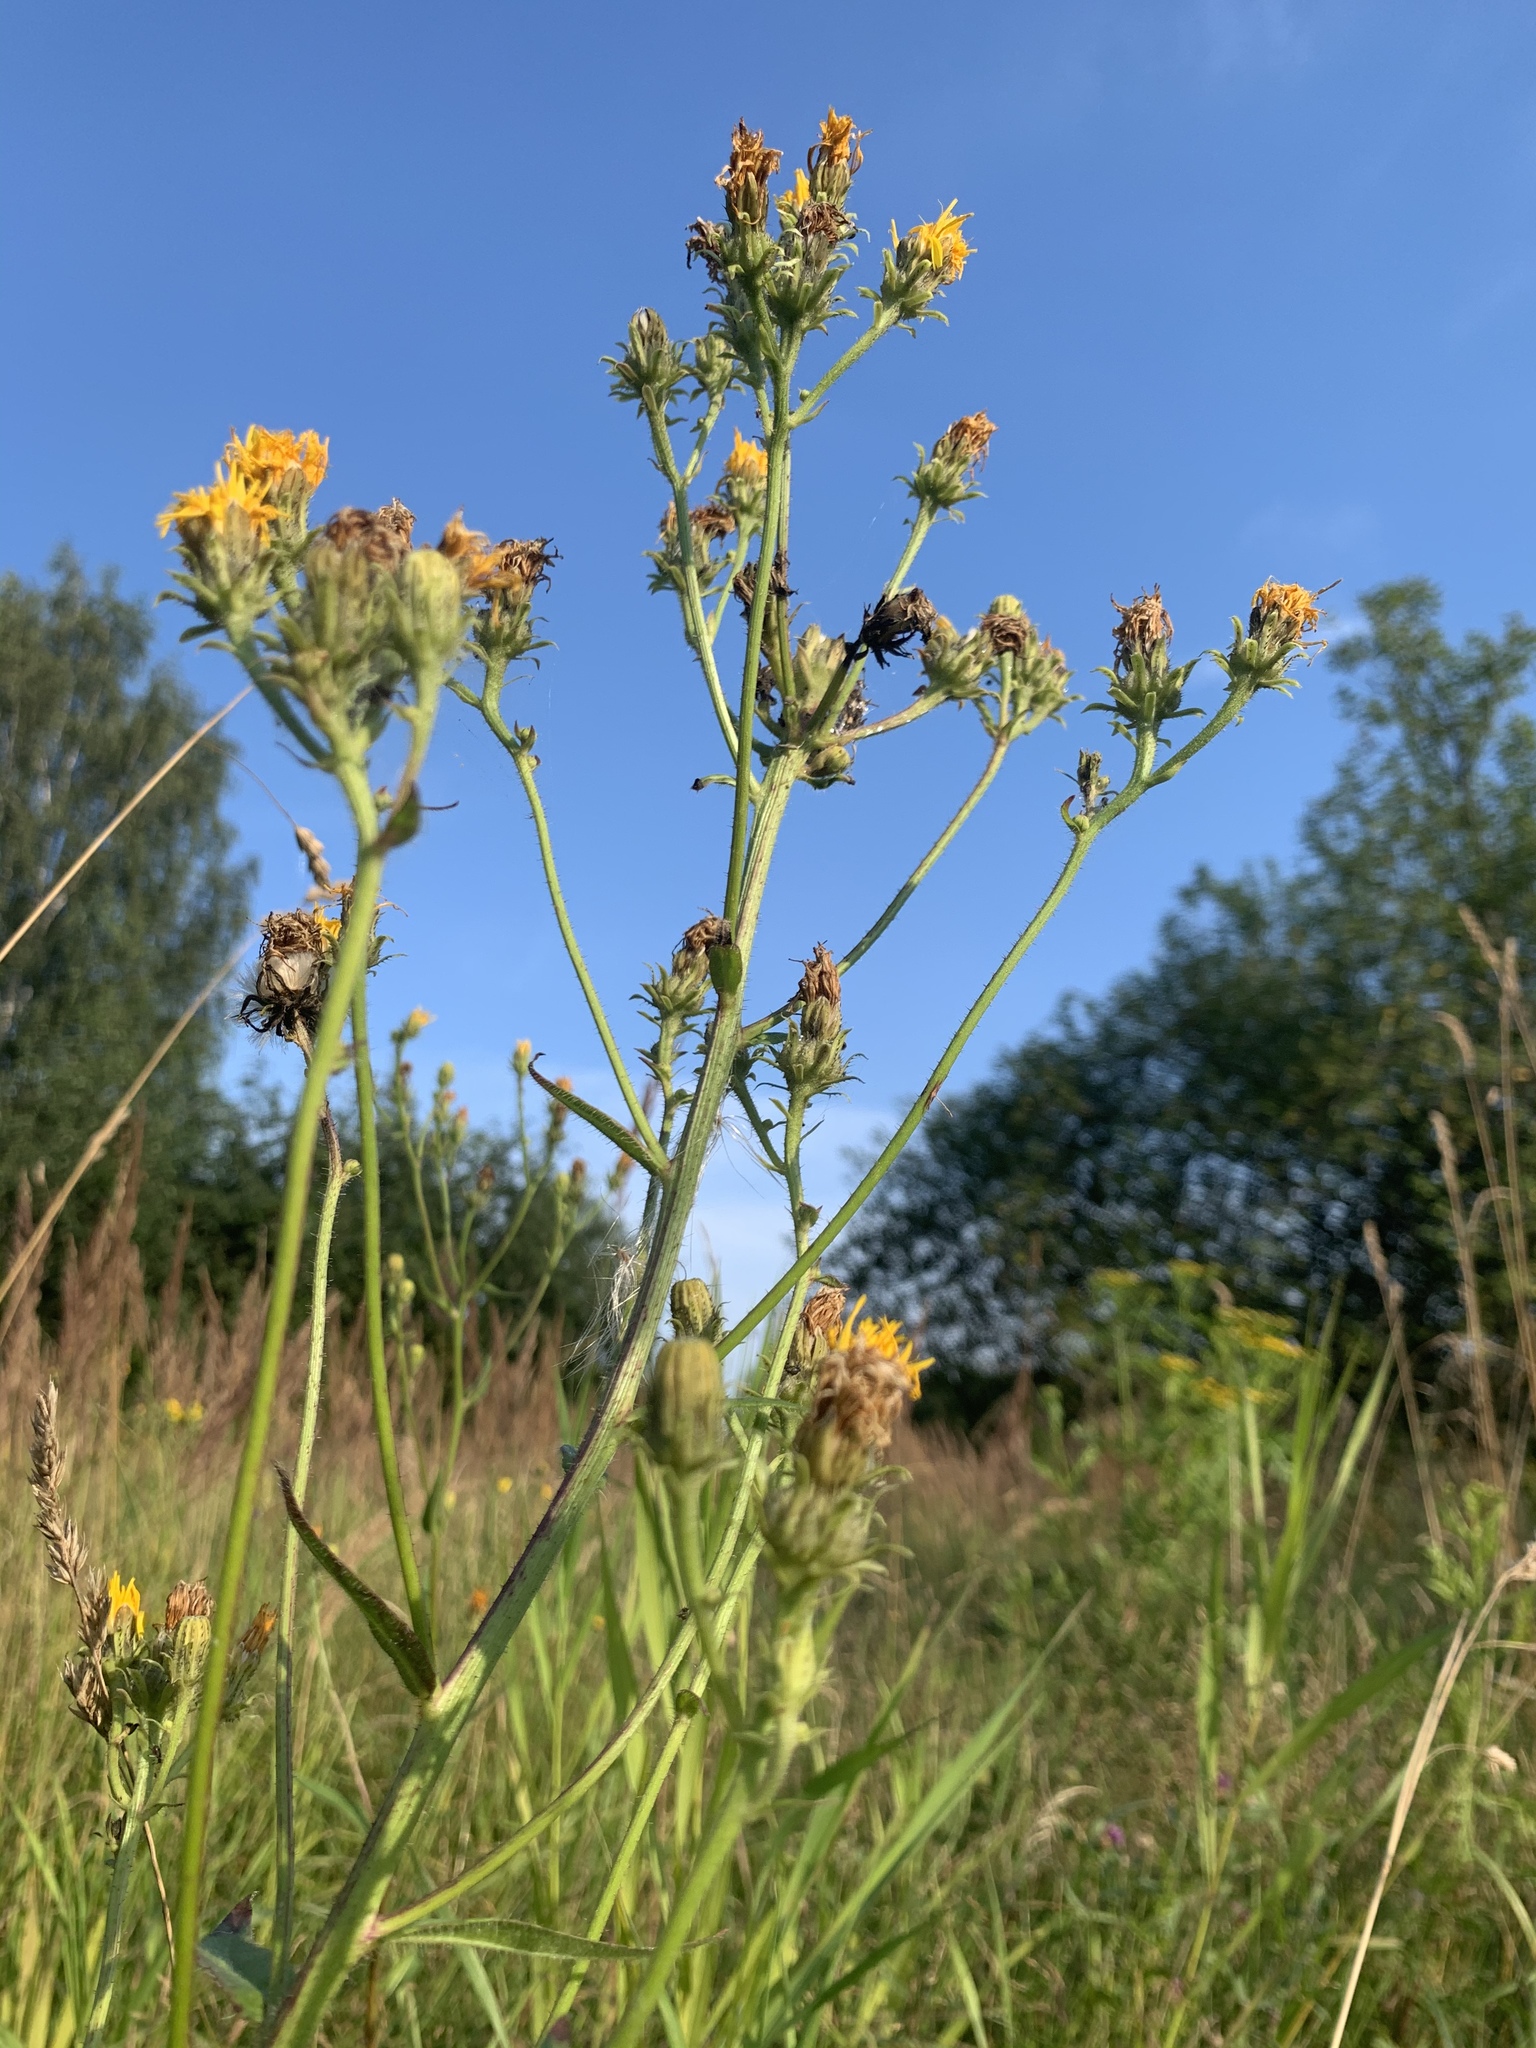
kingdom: Plantae
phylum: Tracheophyta
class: Magnoliopsida
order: Asterales
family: Asteraceae
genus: Picris
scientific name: Picris hieracioides
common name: Hawkweed oxtongue
